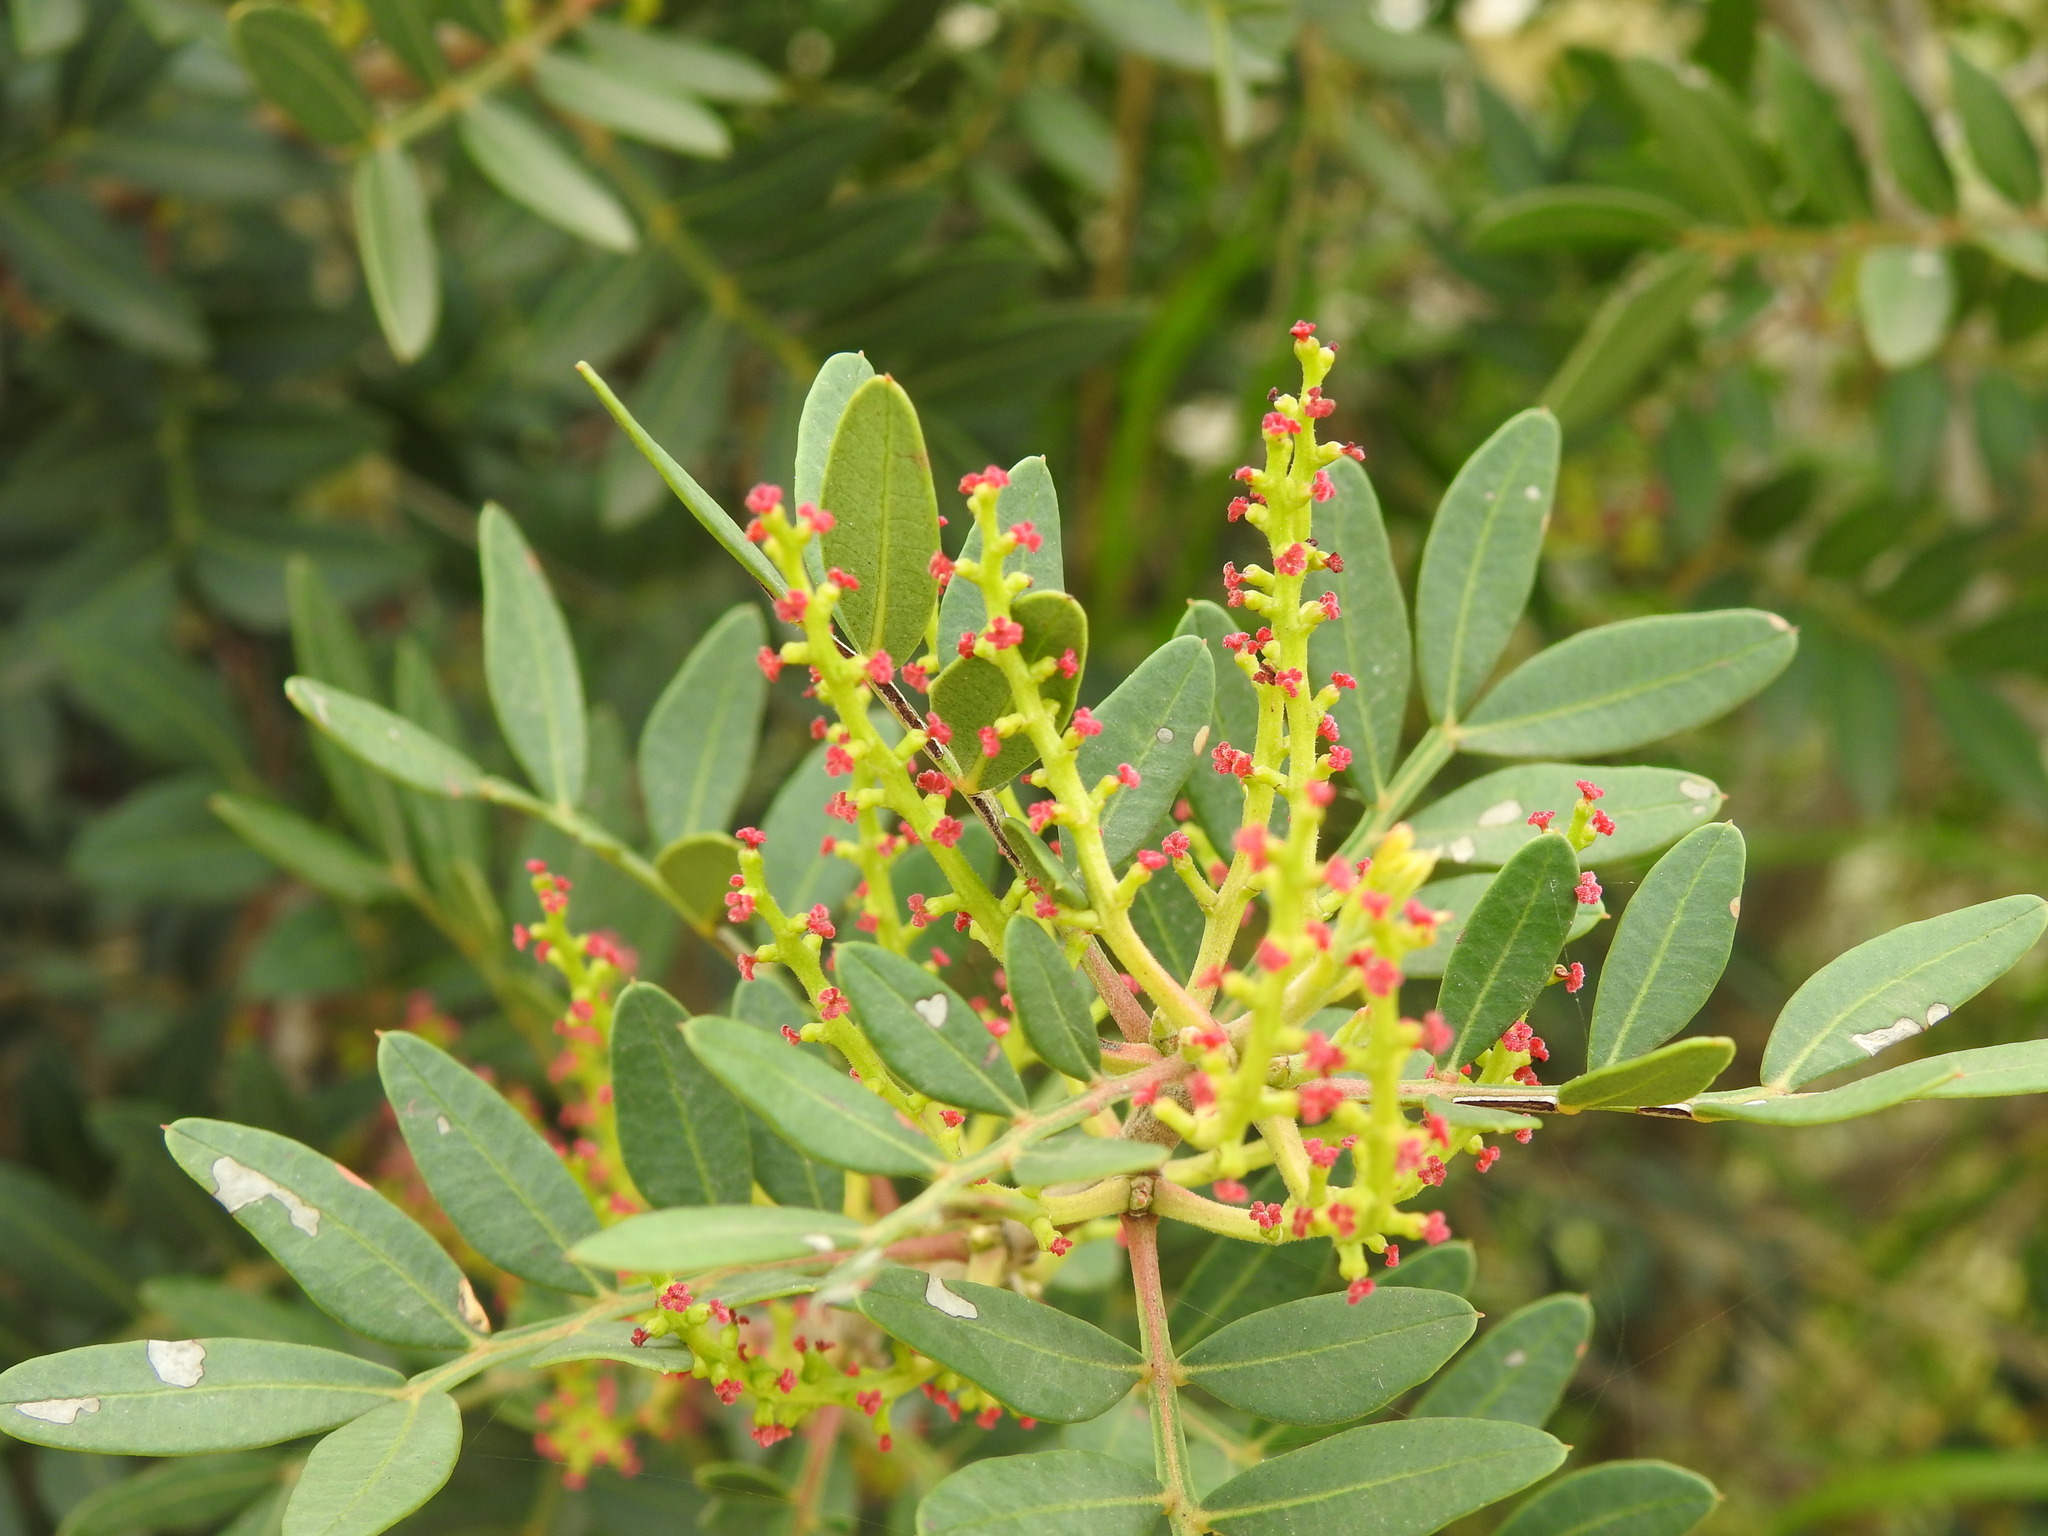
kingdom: Plantae
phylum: Tracheophyta
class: Magnoliopsida
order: Sapindales
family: Anacardiaceae
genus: Pistacia
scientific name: Pistacia lentiscus
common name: Lentisk
